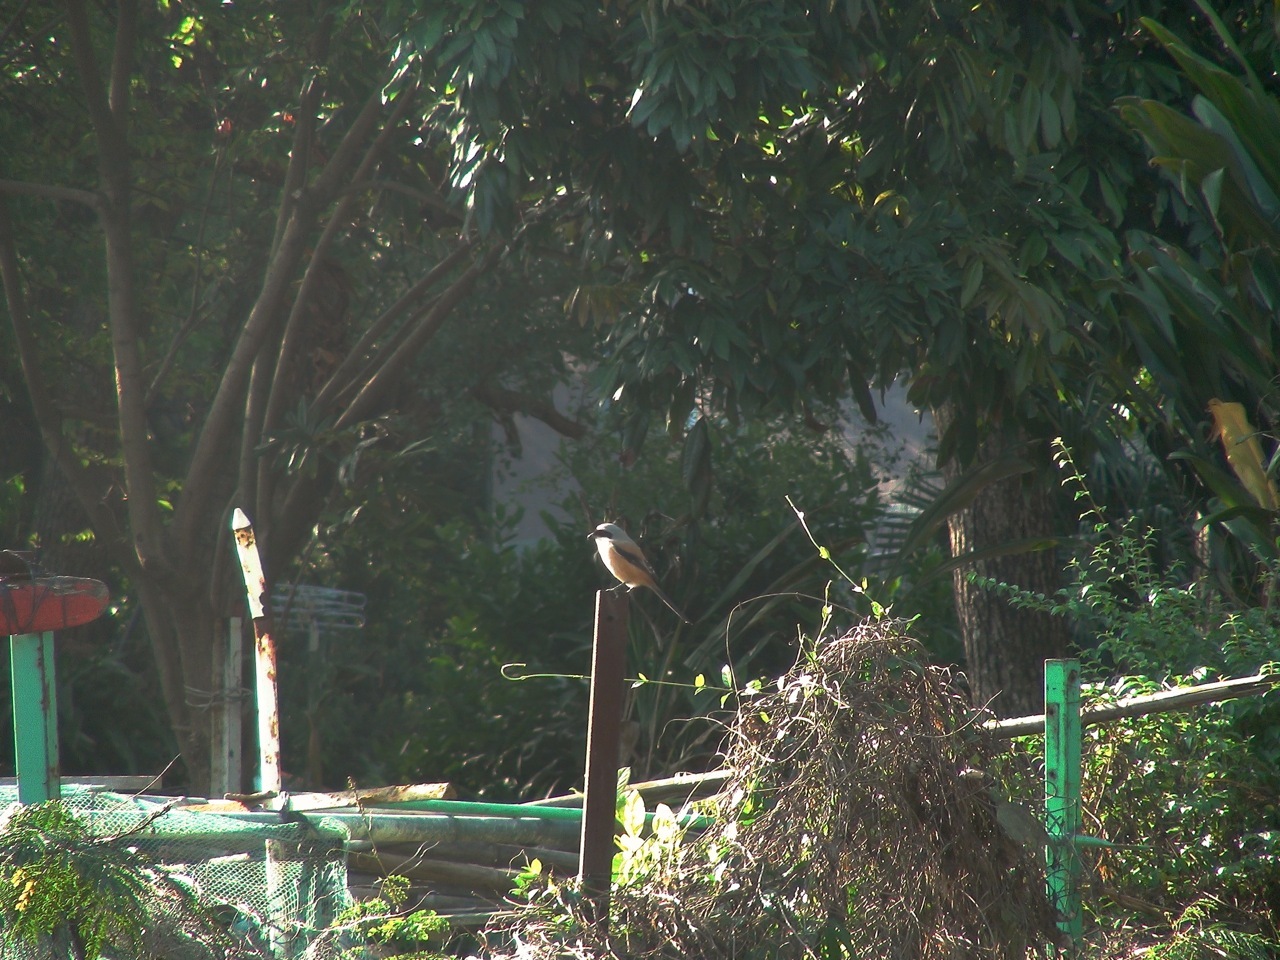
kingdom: Animalia
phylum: Chordata
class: Aves
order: Passeriformes
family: Laniidae
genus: Lanius
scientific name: Lanius schach
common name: Long-tailed shrike
